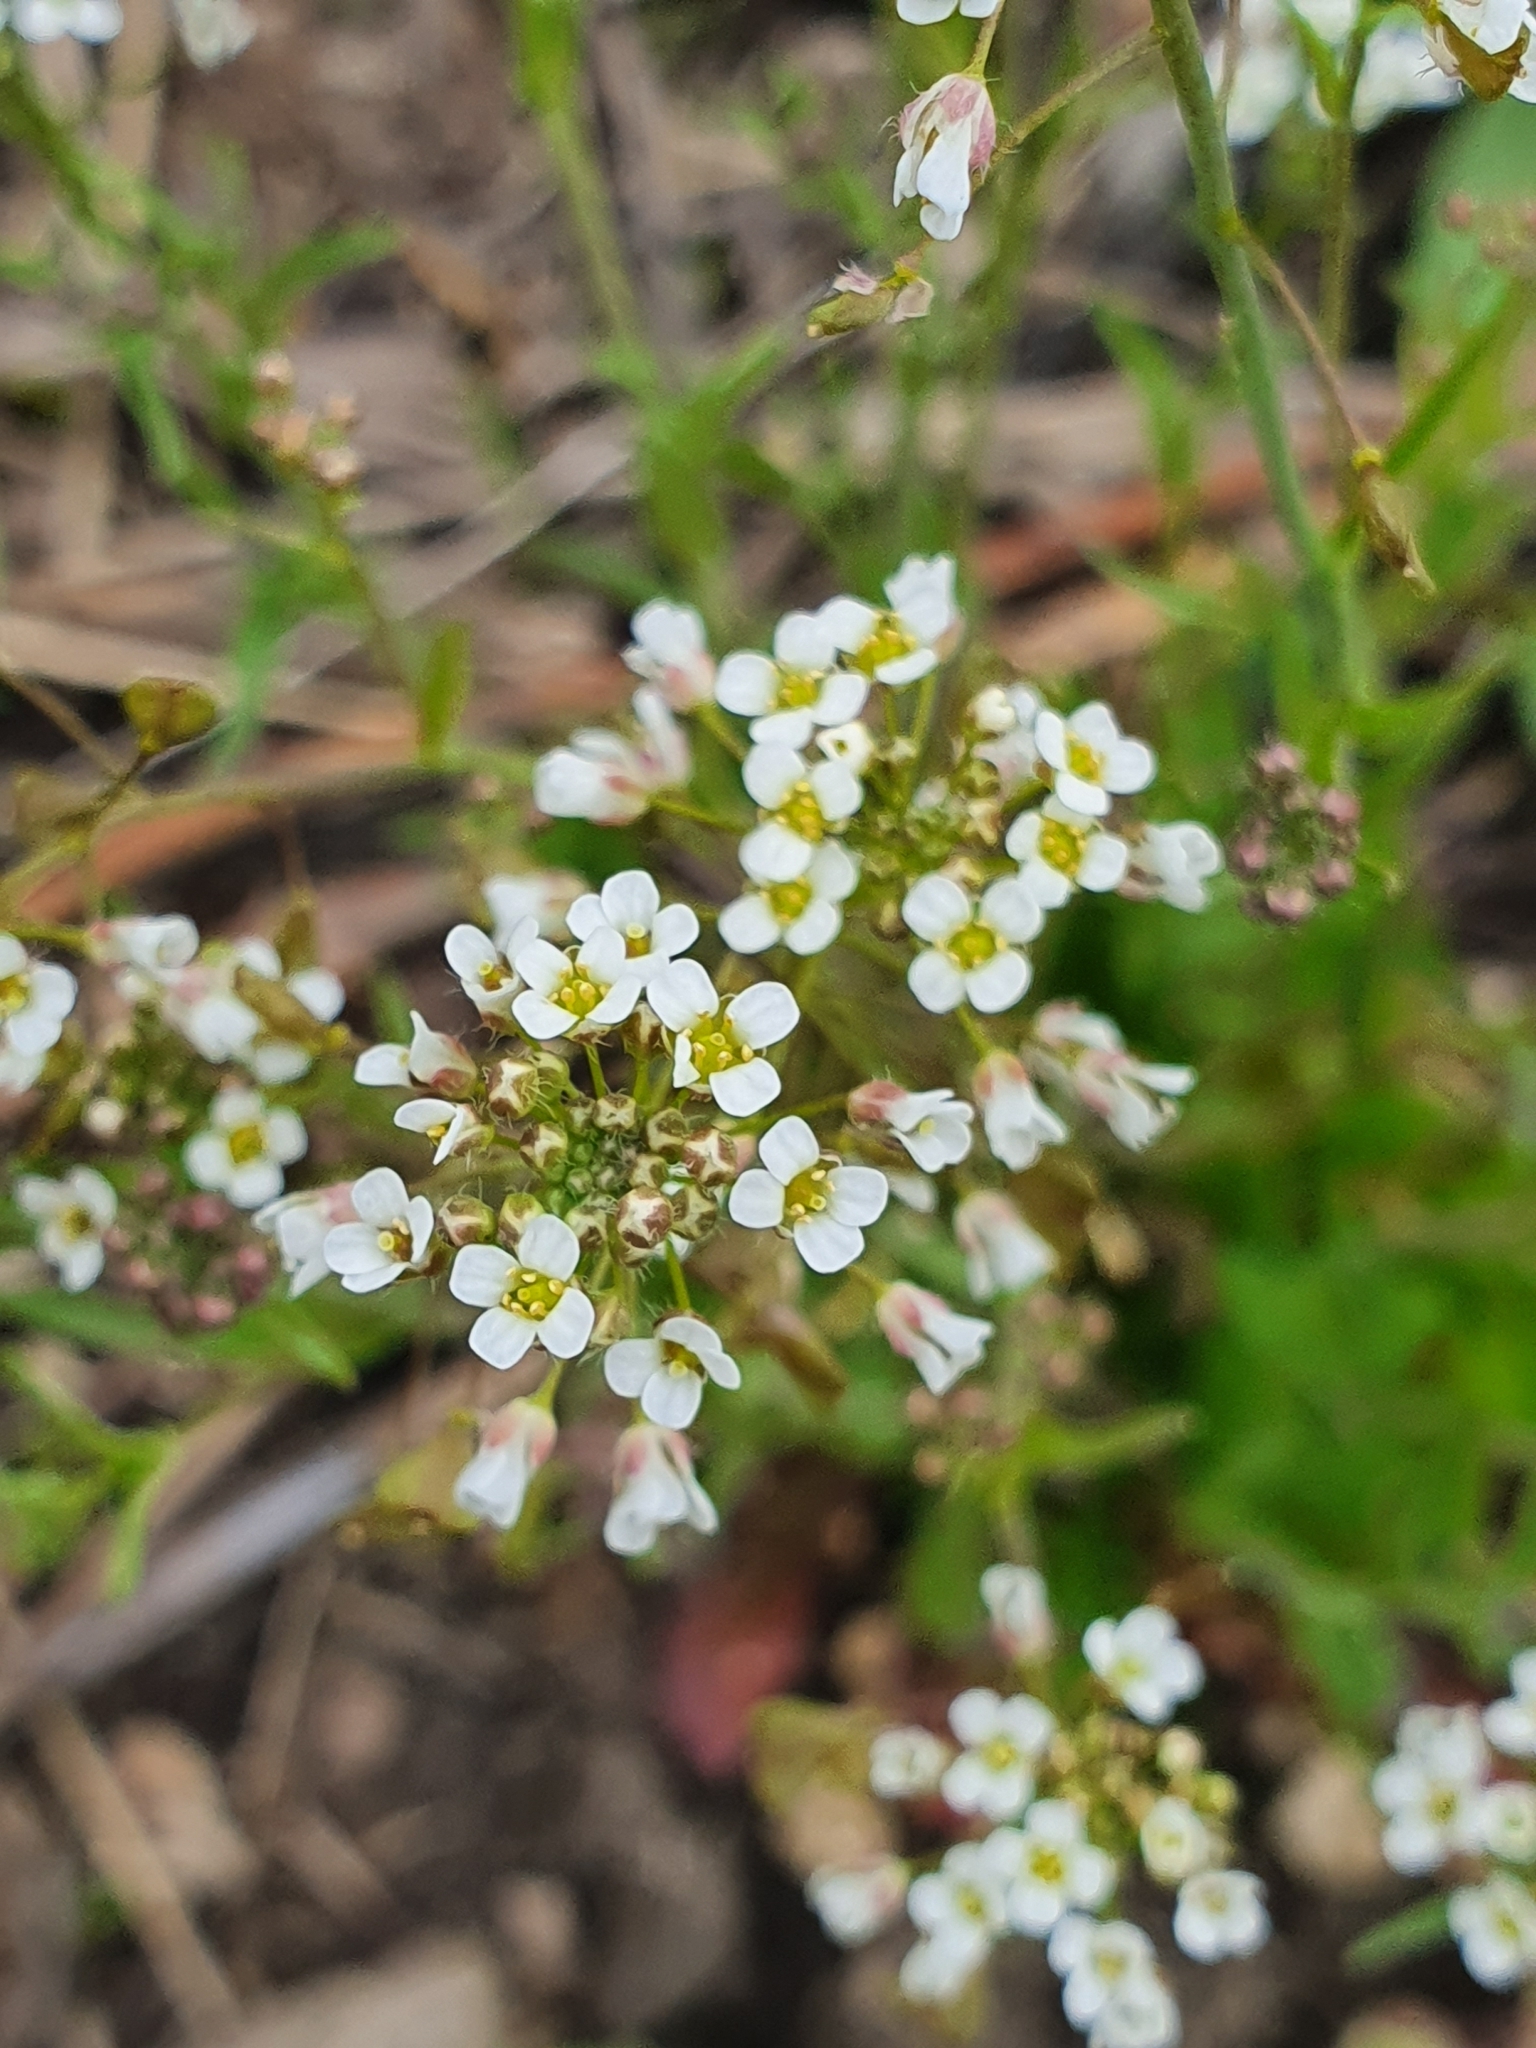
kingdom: Plantae
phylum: Tracheophyta
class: Magnoliopsida
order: Brassicales
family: Brassicaceae
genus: Capsella
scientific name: Capsella bursa-pastoris
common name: Shepherd's purse
